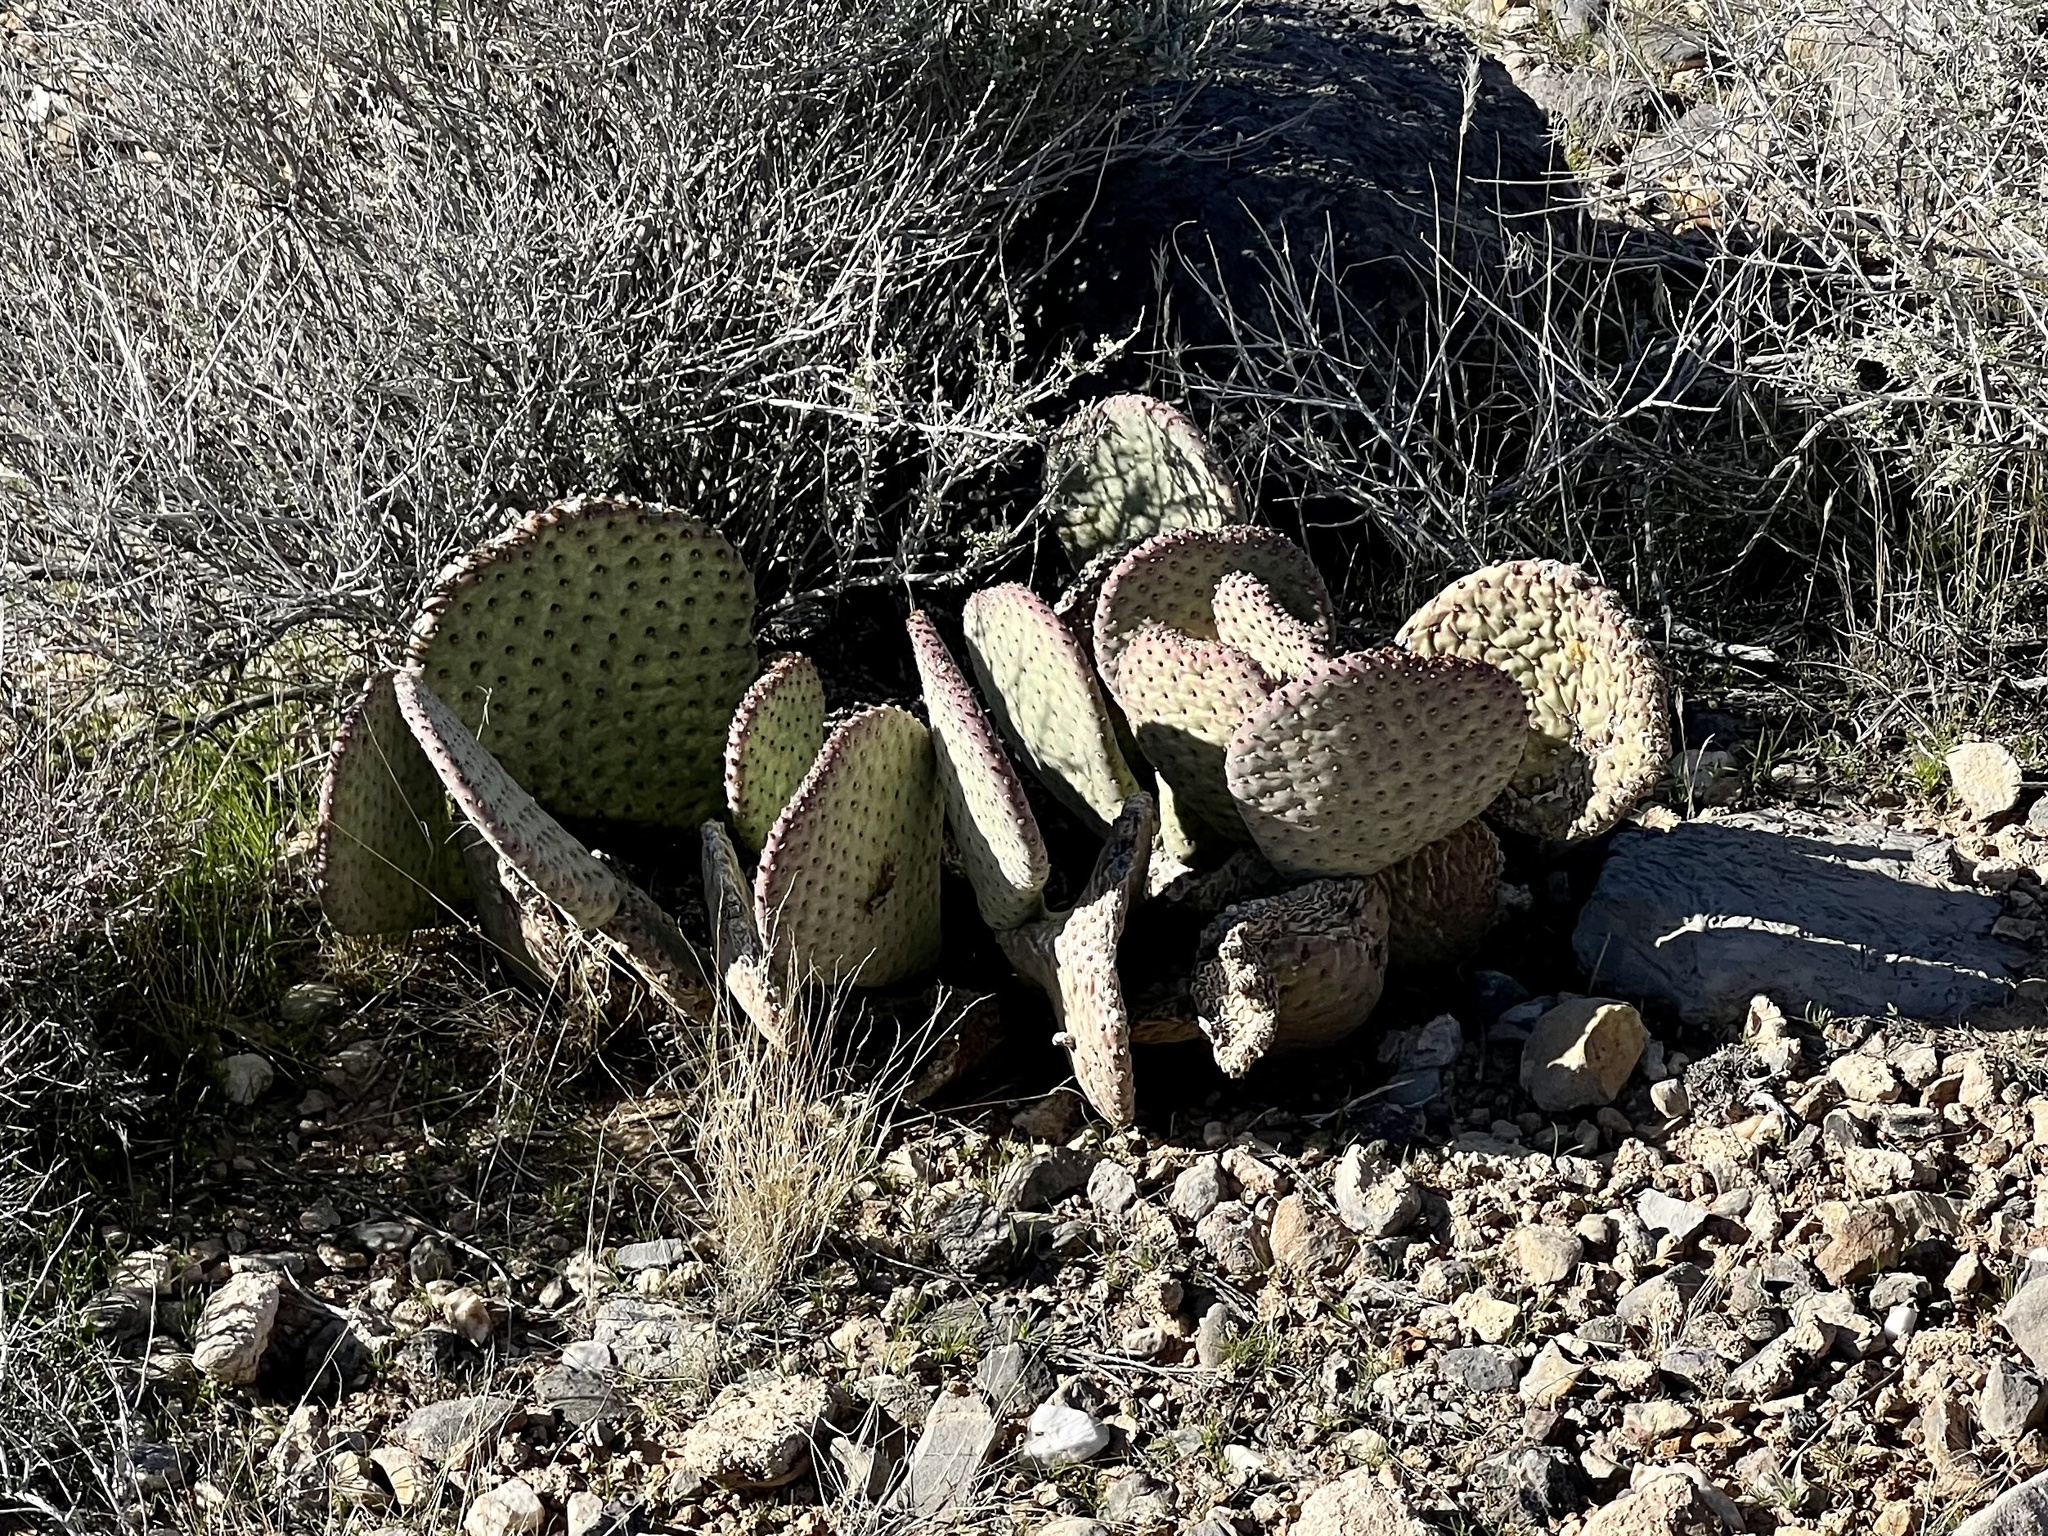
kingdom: Plantae
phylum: Tracheophyta
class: Magnoliopsida
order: Caryophyllales
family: Cactaceae
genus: Opuntia
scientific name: Opuntia basilaris
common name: Beavertail prickly-pear
